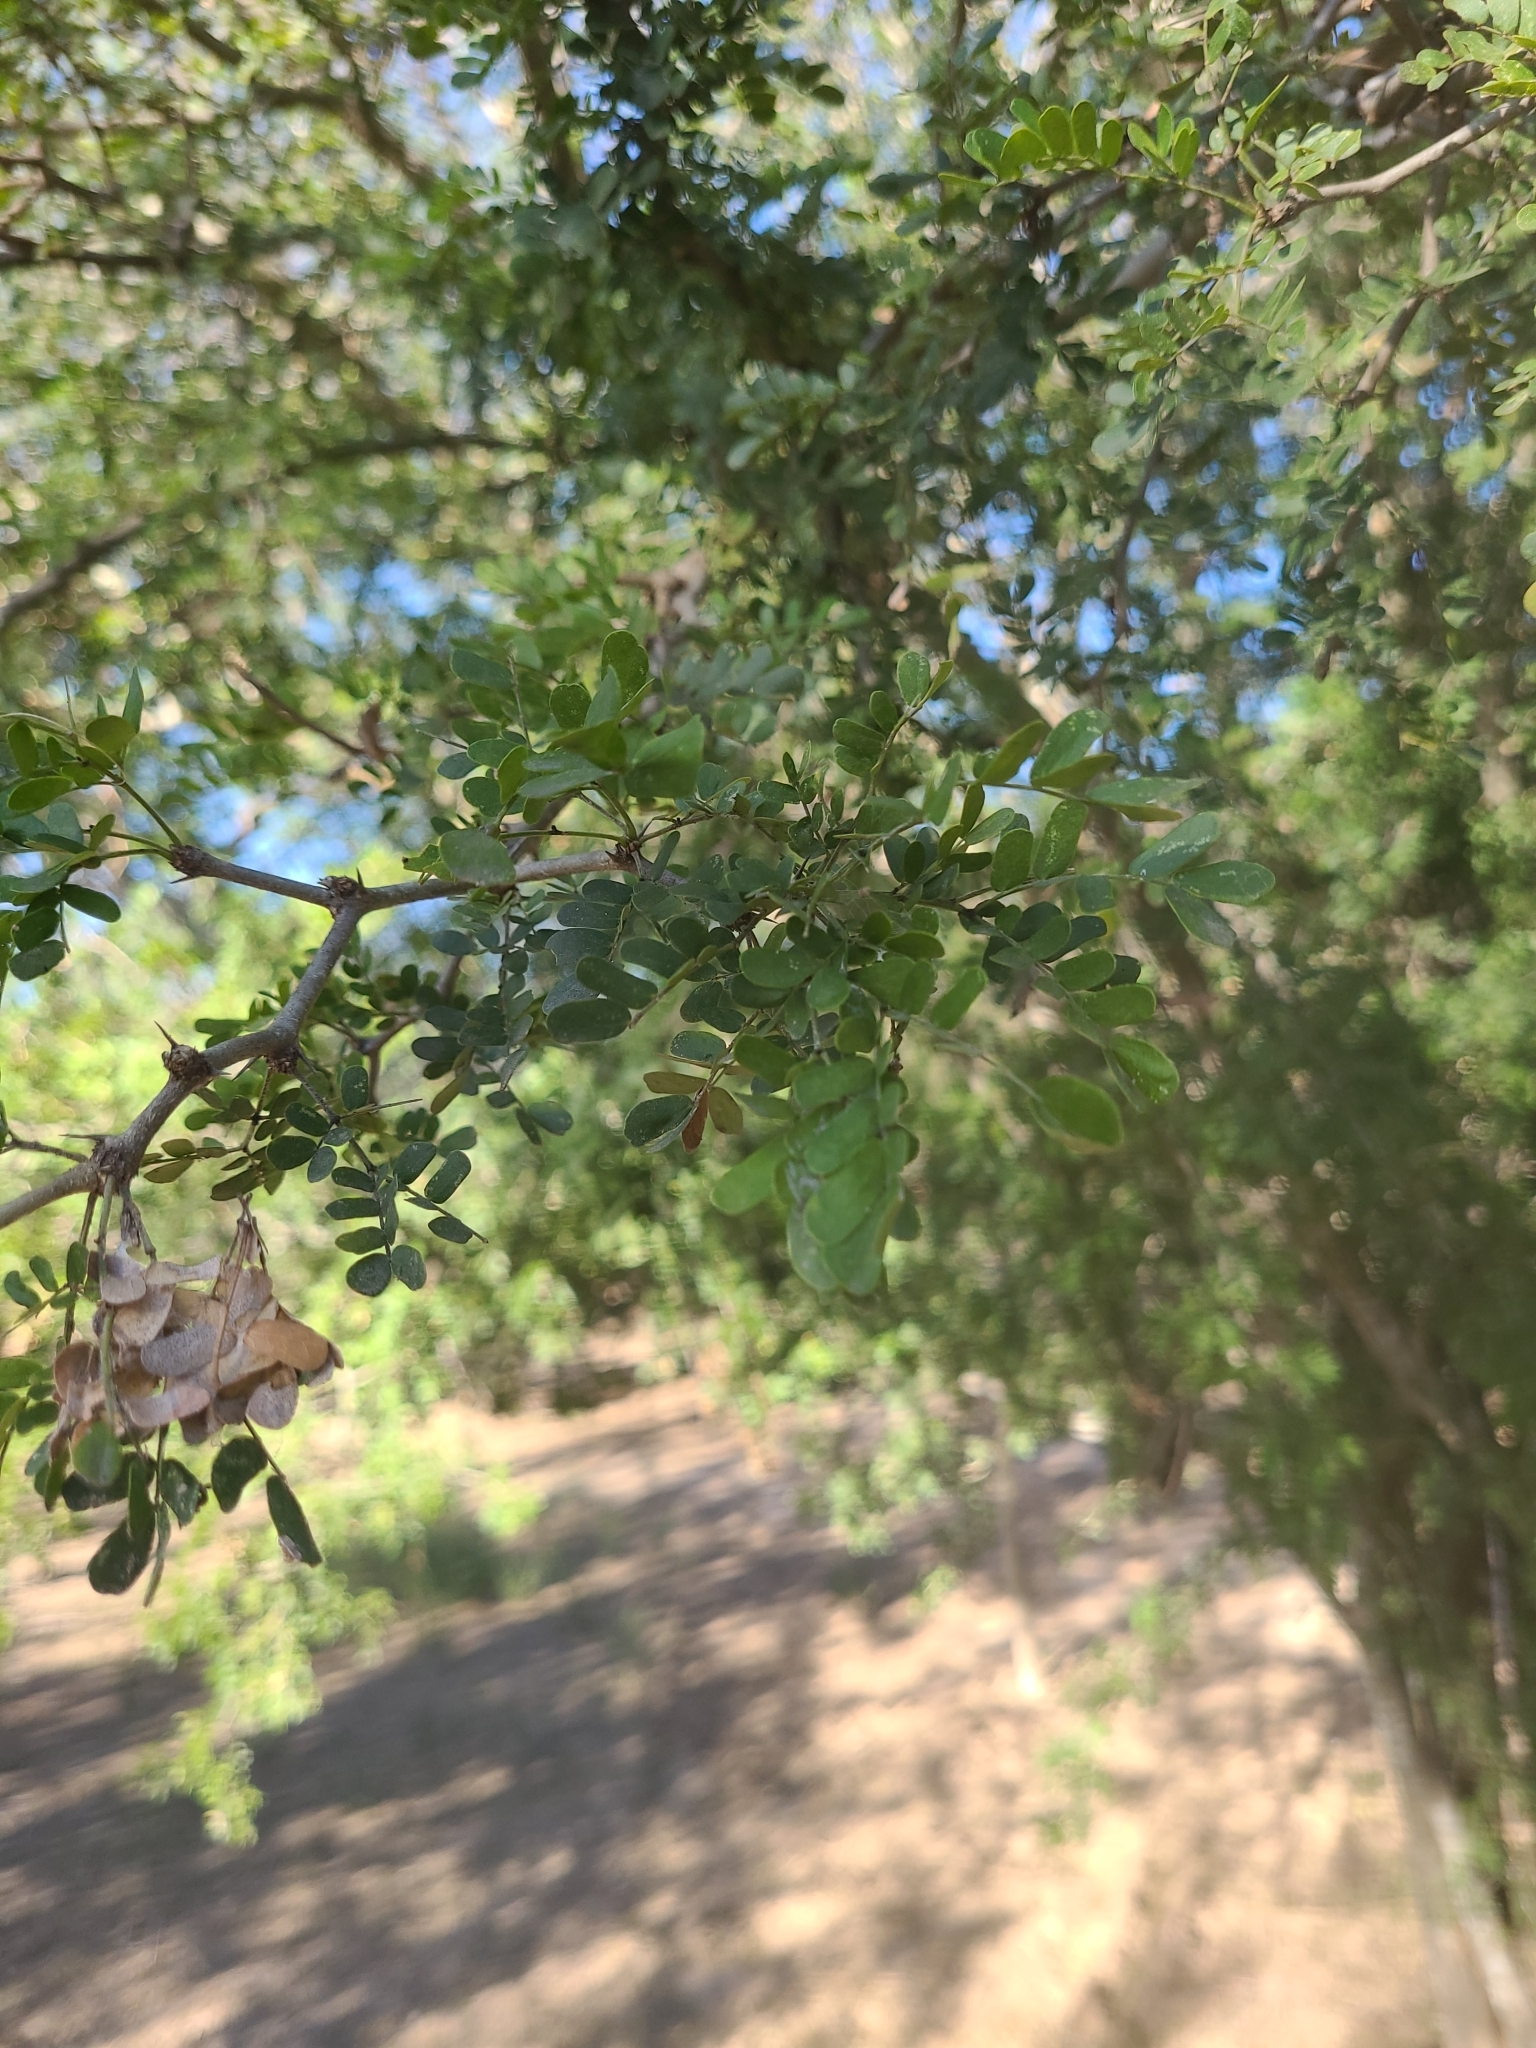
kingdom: Plantae
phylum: Tracheophyta
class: Magnoliopsida
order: Fabales
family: Fabaceae
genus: Ebenopsis
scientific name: Ebenopsis ebano
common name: Ebony blackbead
